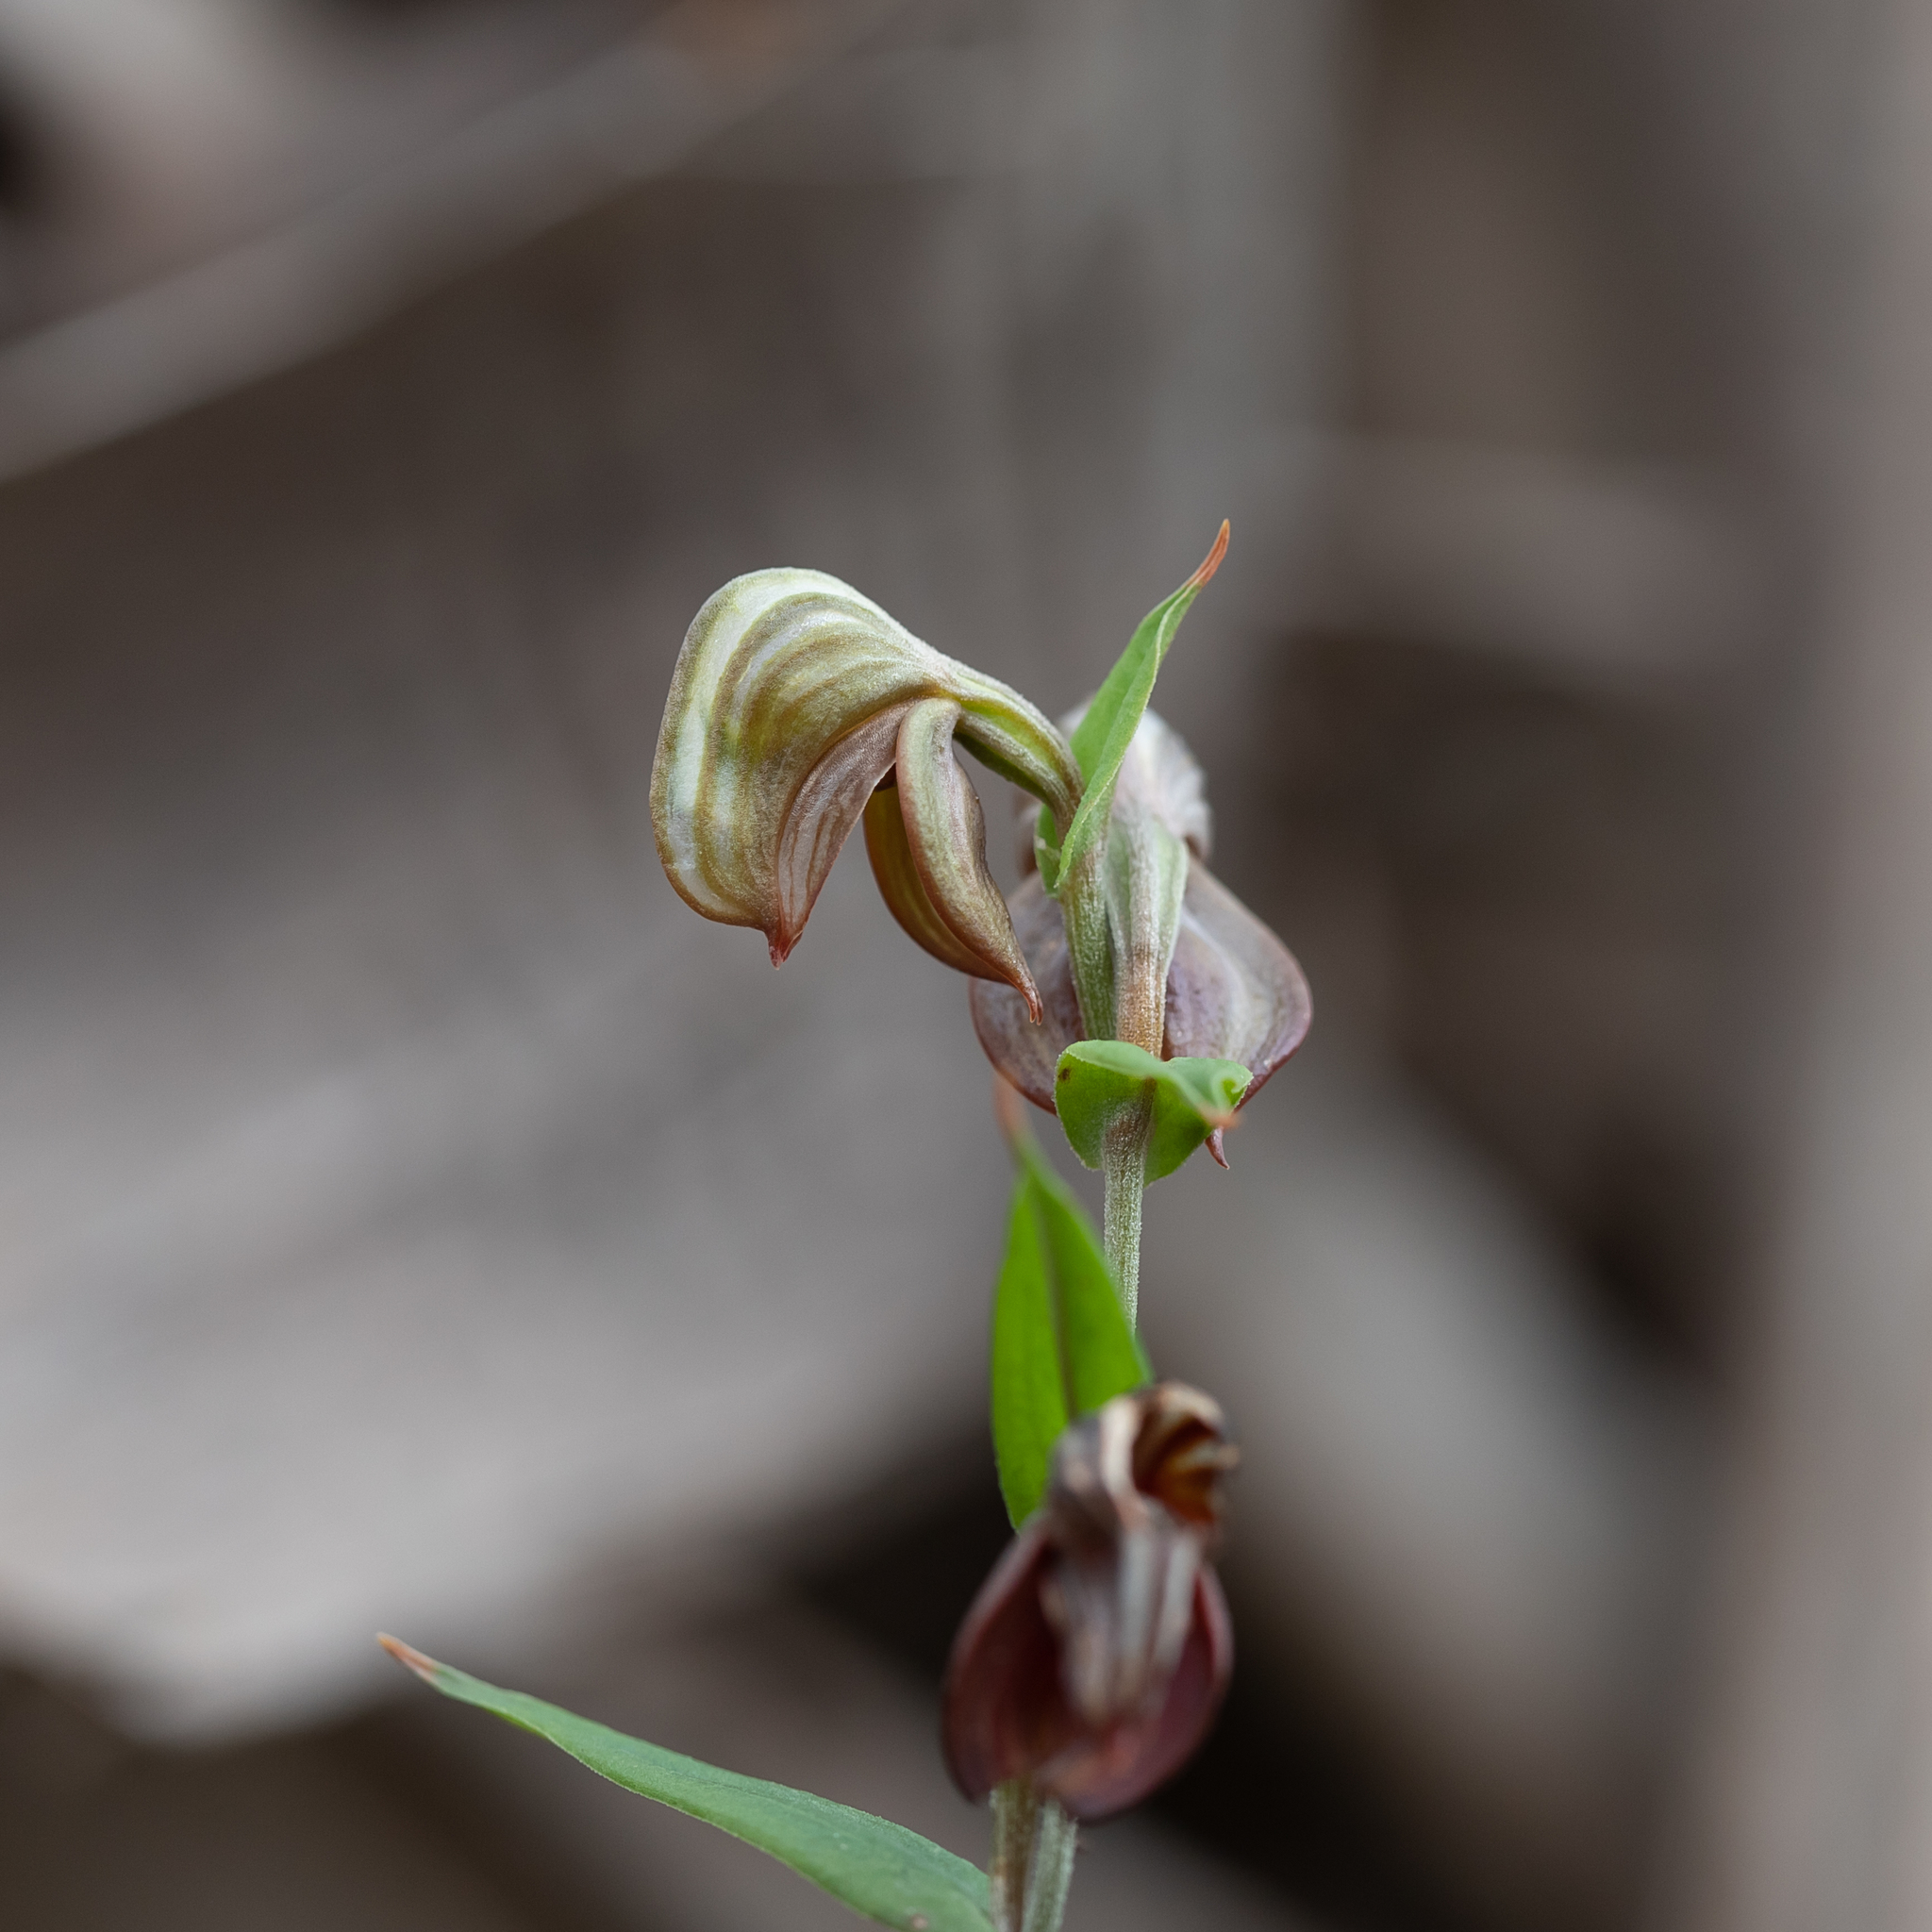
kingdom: Plantae
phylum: Tracheophyta
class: Liliopsida
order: Asparagales
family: Orchidaceae
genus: Pterostylis
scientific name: Pterostylis sanguinea
